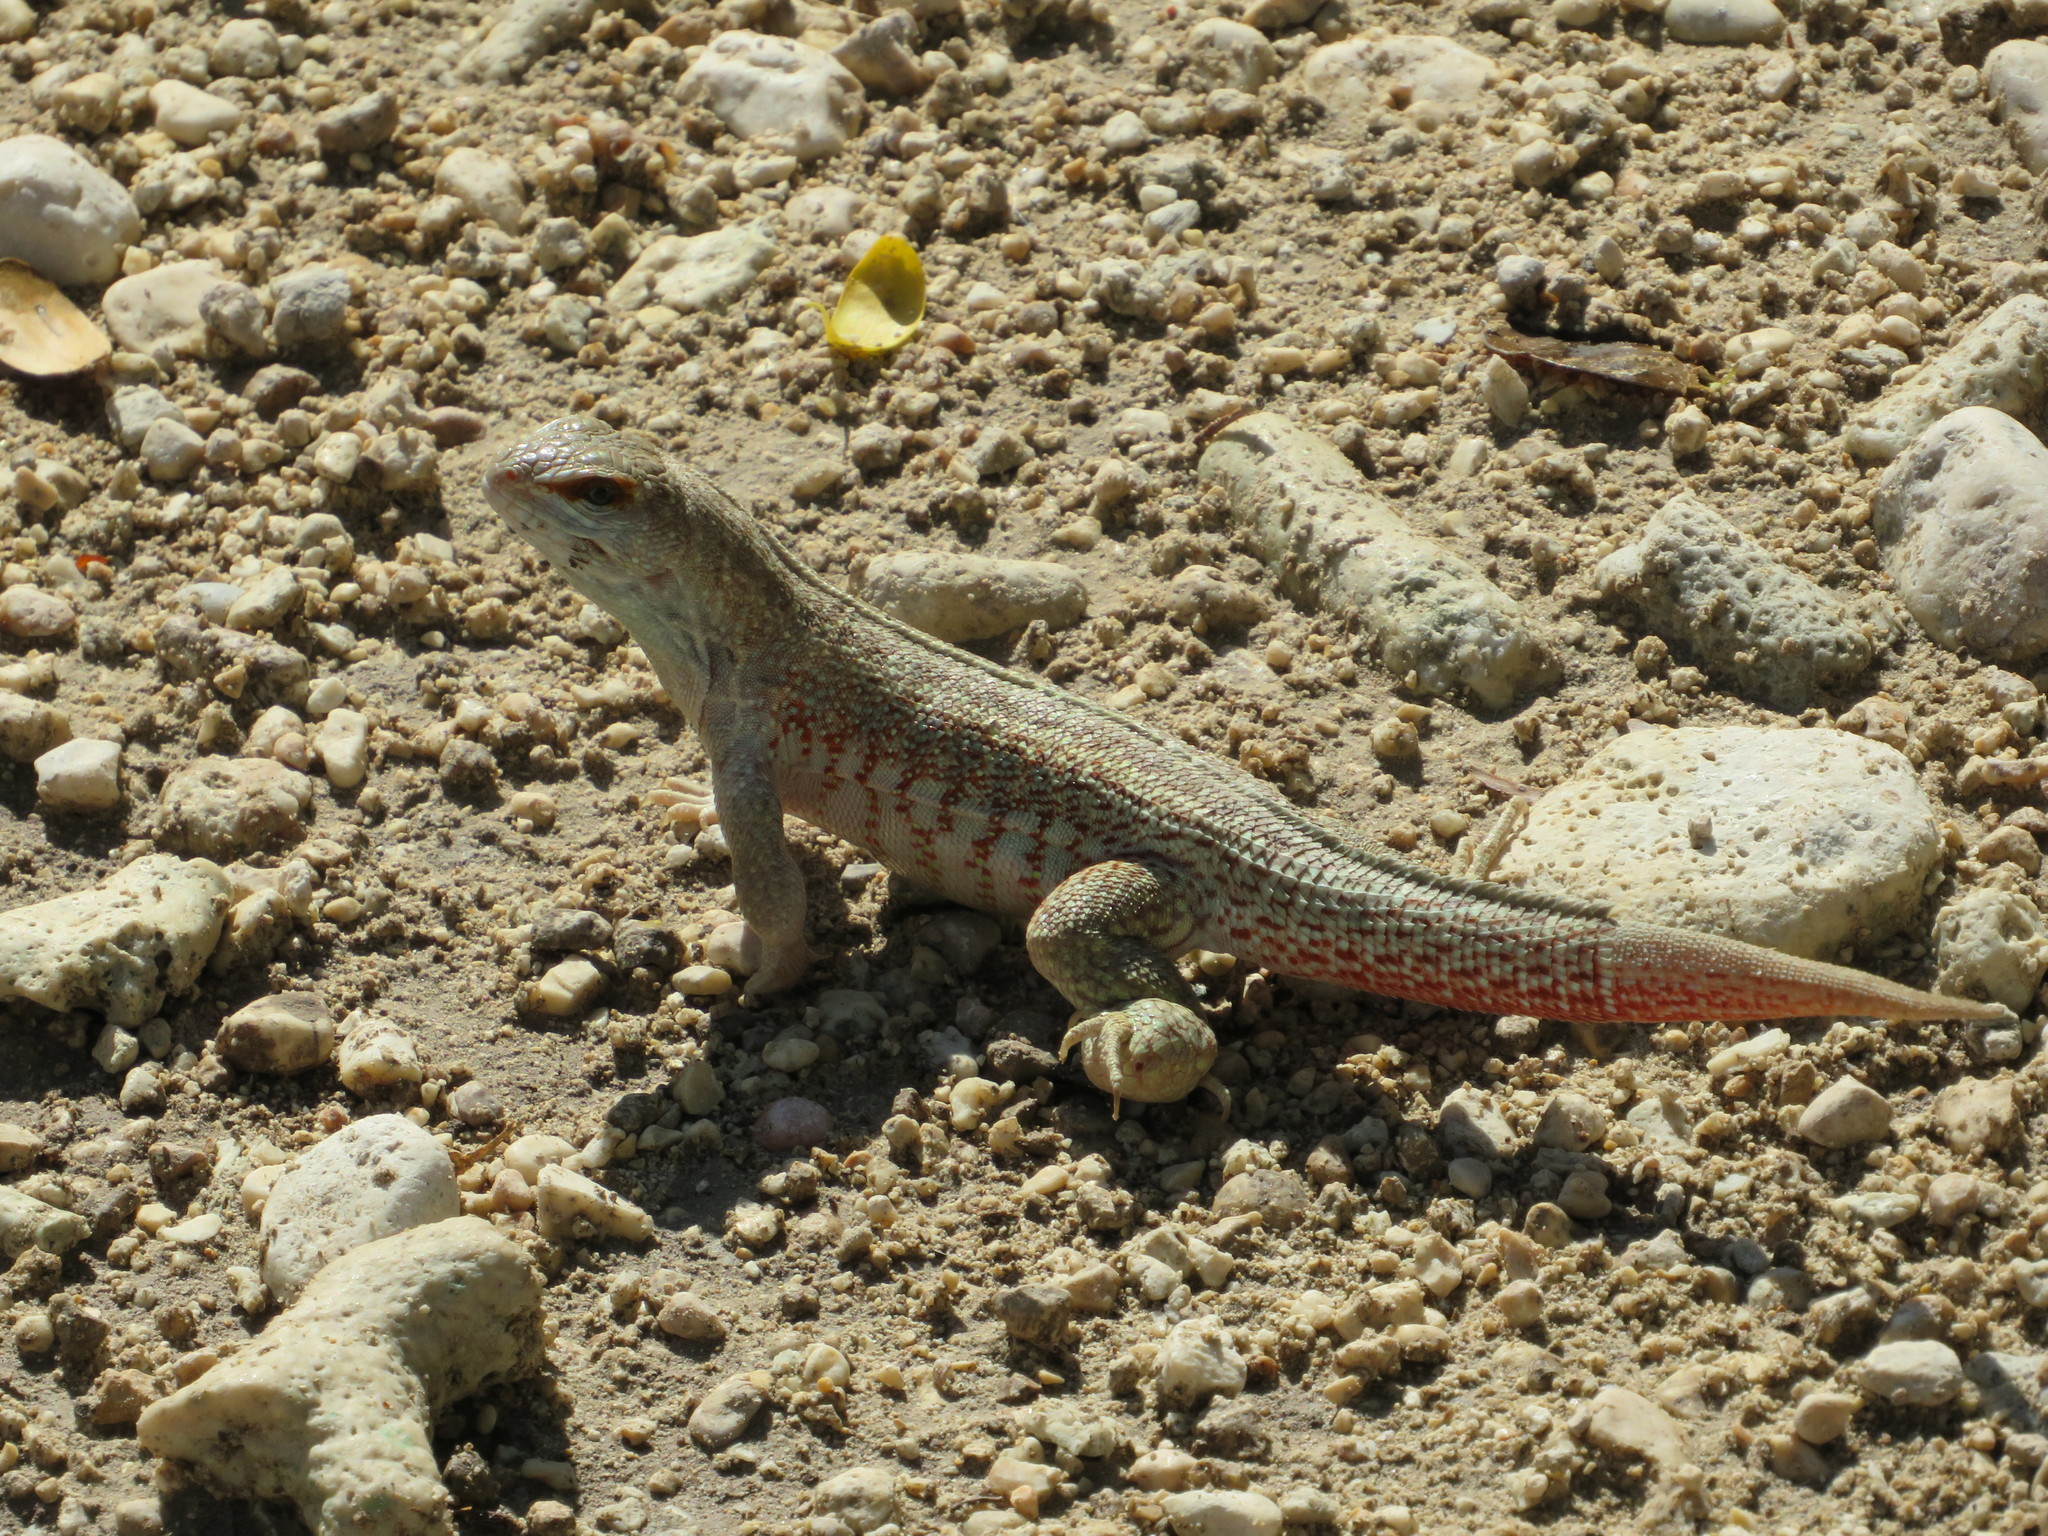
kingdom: Animalia
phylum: Chordata
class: Squamata
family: Leiocephalidae
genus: Leiocephalus
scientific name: Leiocephalus schreibersii
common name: Red-sided curly-tailed lizard
